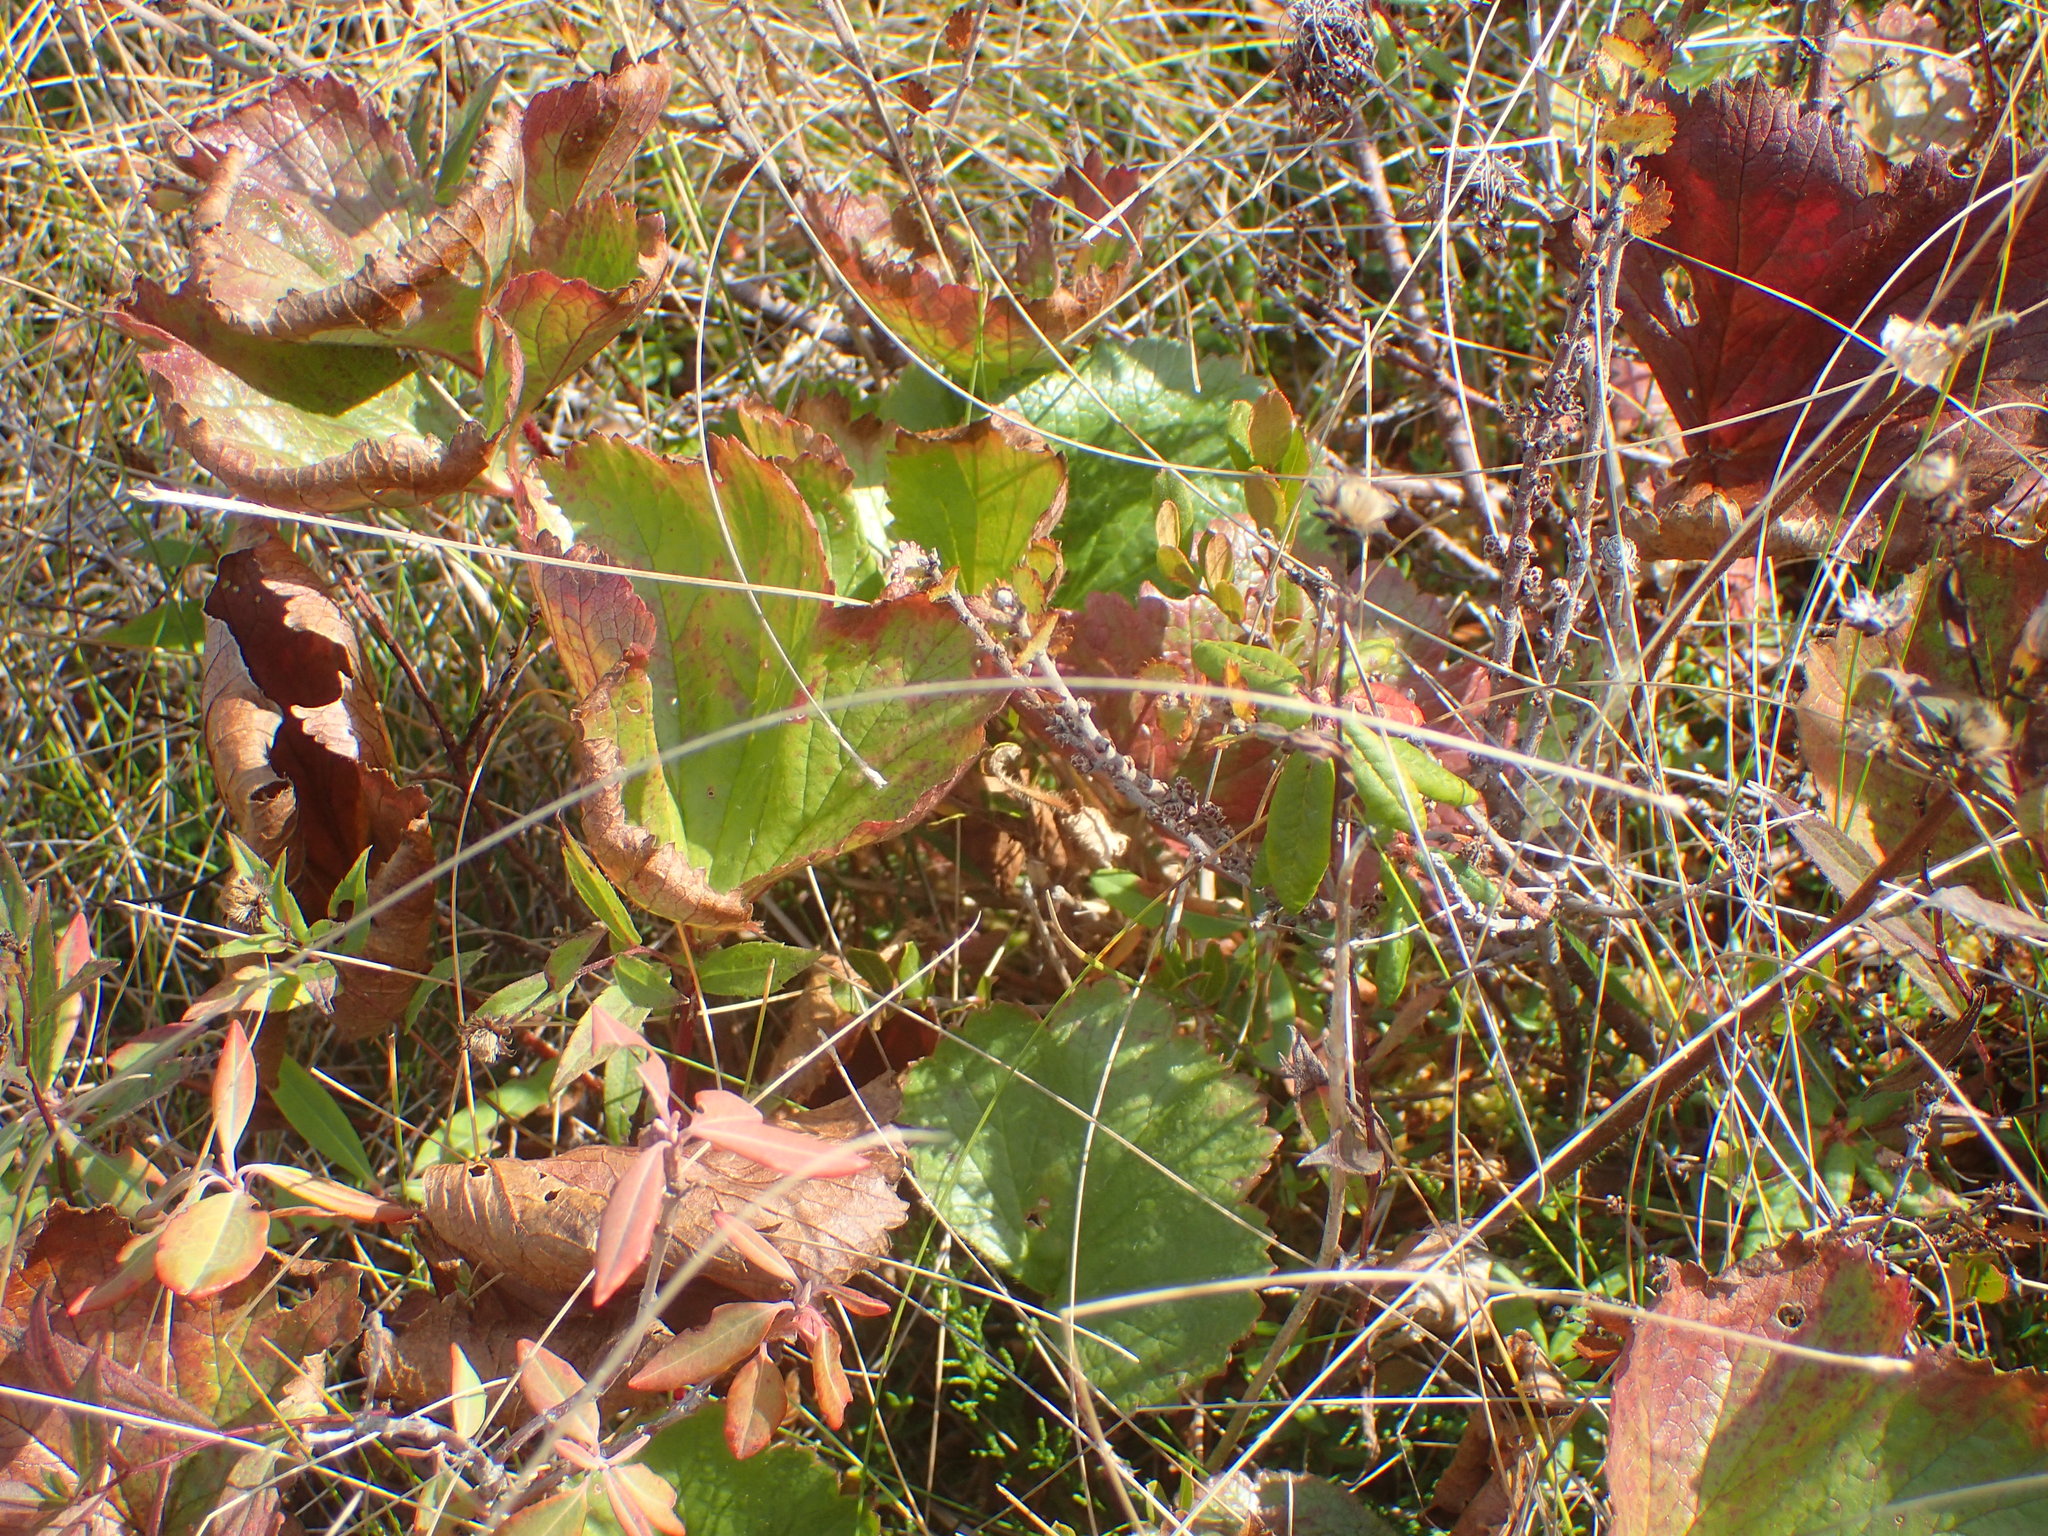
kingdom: Plantae
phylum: Tracheophyta
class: Magnoliopsida
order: Rosales
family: Rosaceae
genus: Geum
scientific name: Geum peckii
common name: Eastern mountain avens
